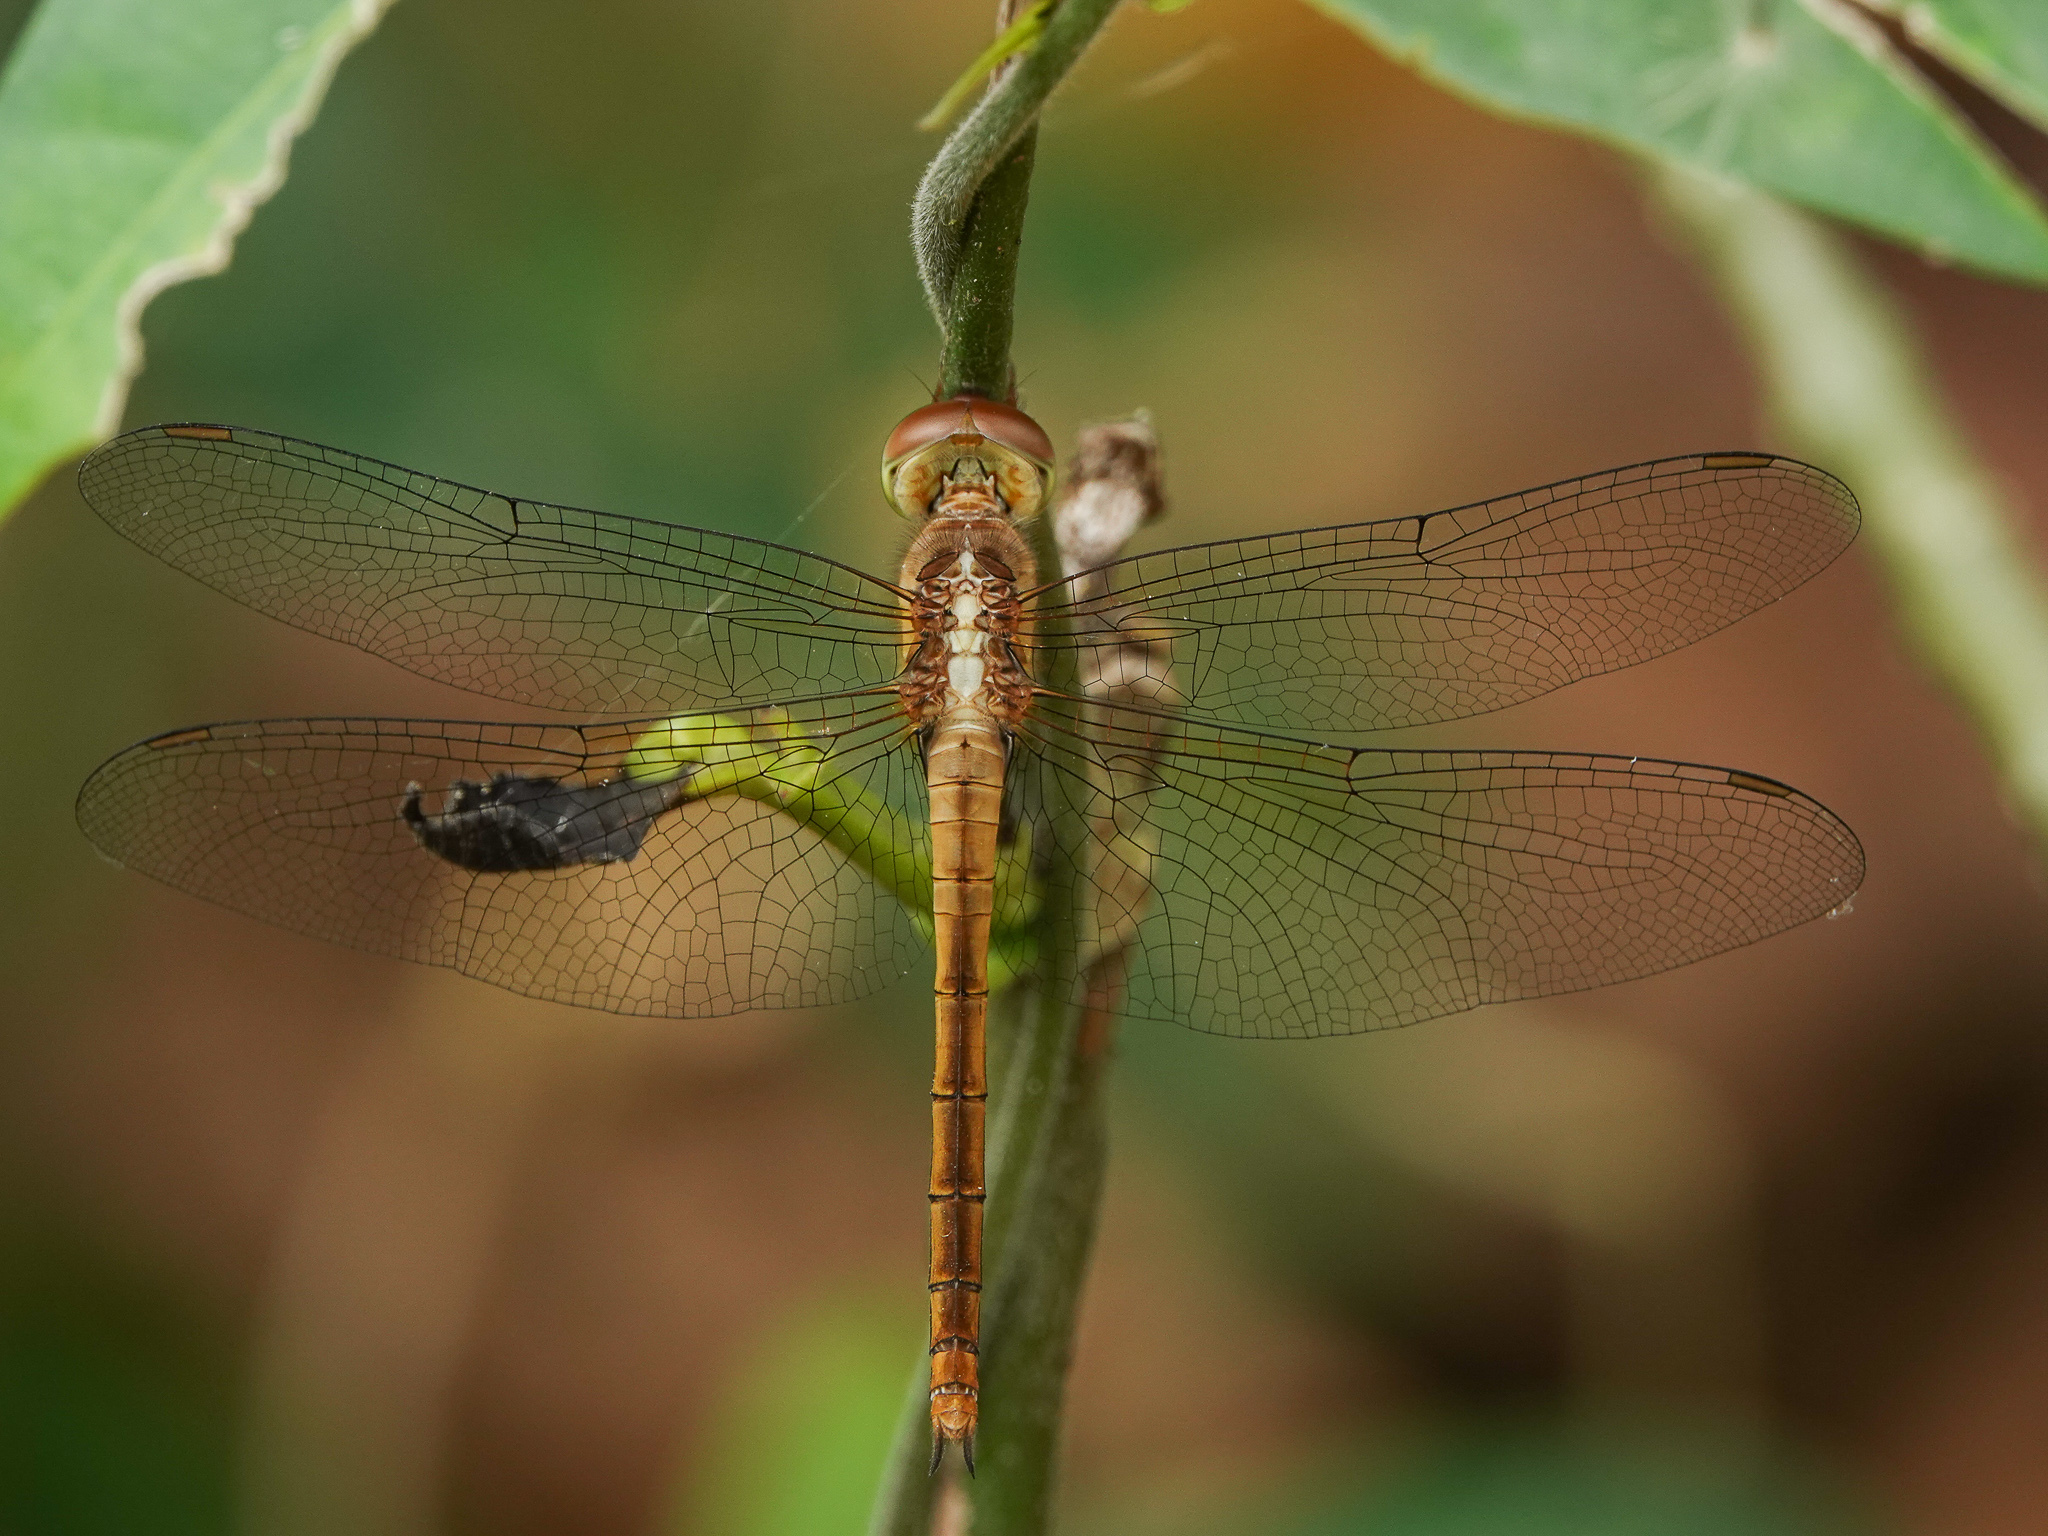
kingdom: Animalia
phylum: Arthropoda
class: Insecta
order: Odonata
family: Libellulidae
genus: Tholymis
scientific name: Tholymis tillarga
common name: Coral-tailed cloud wing
